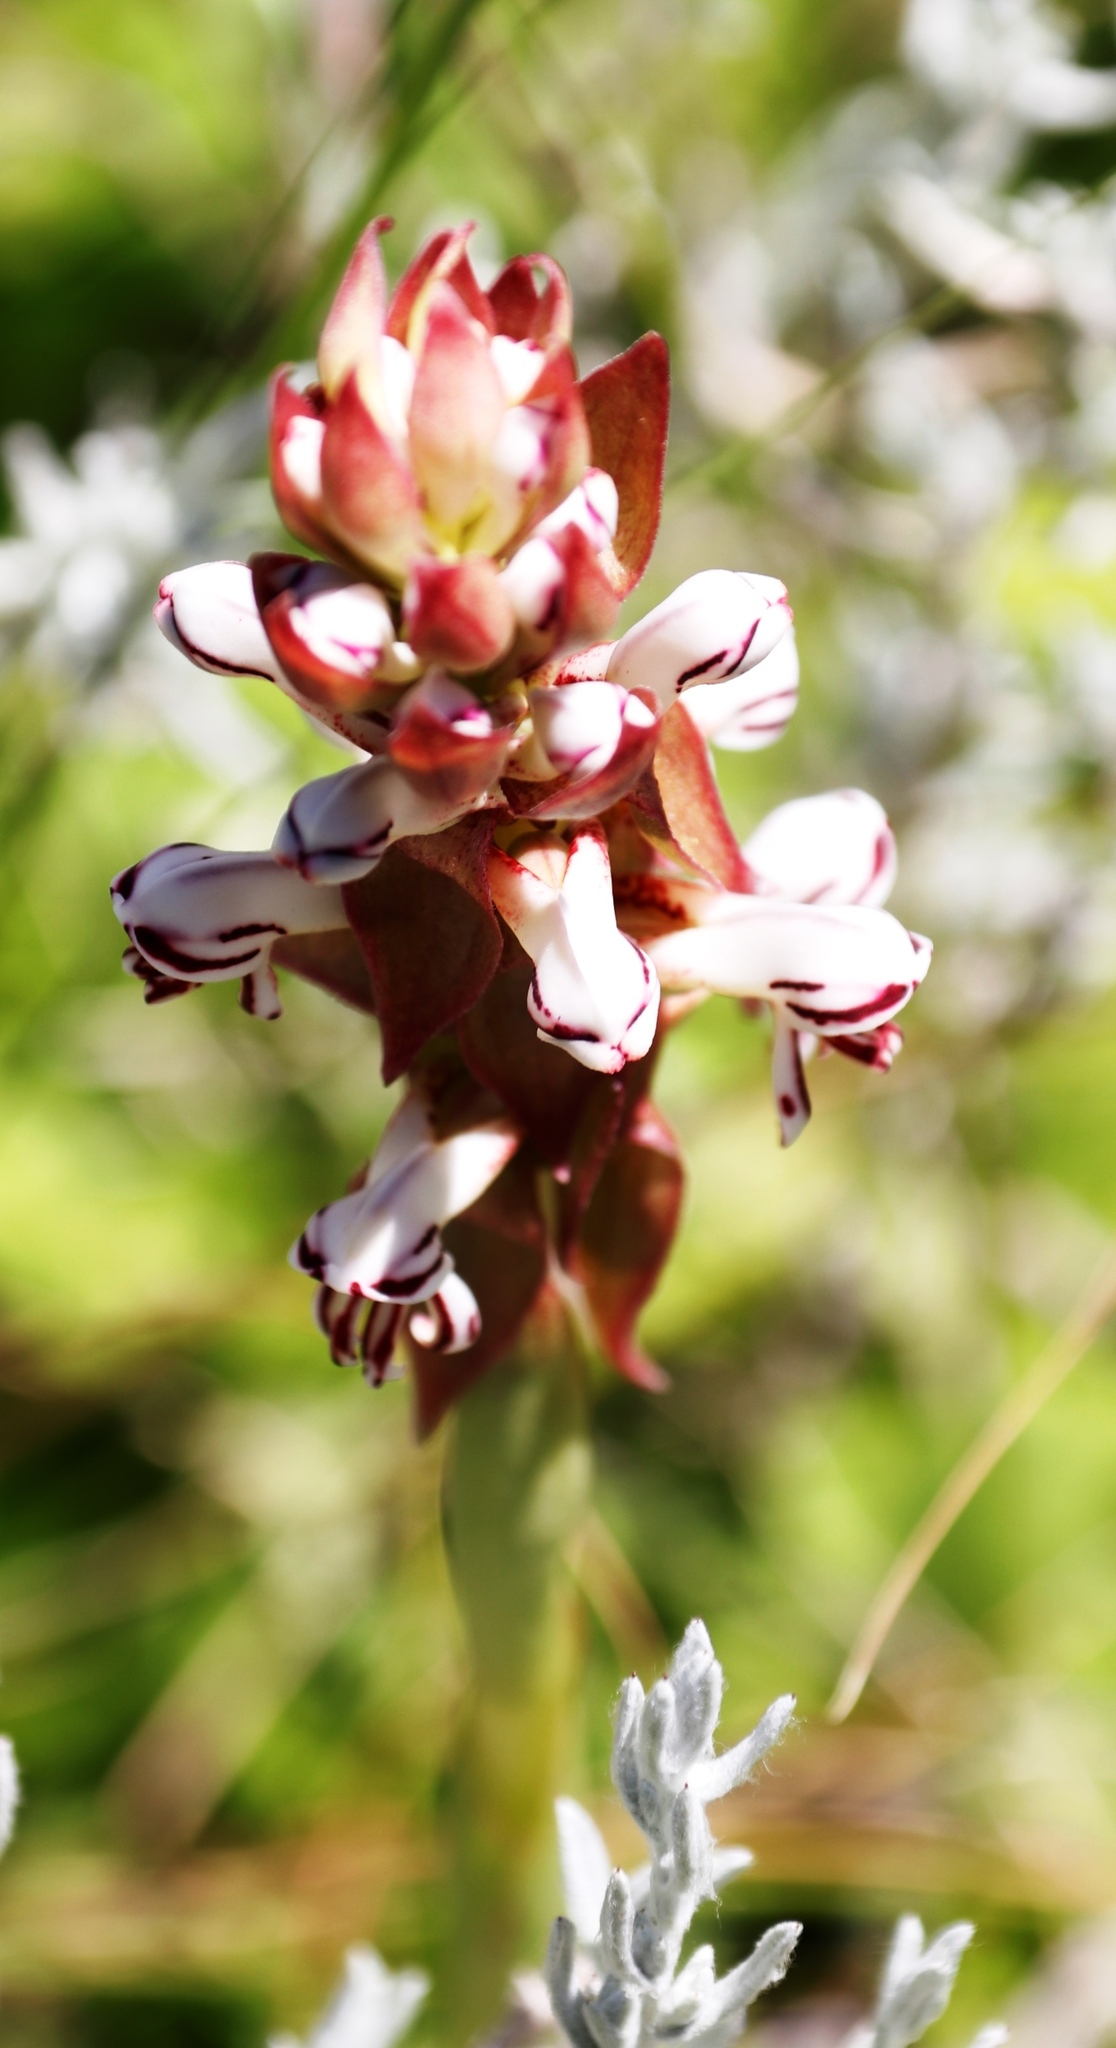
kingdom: Plantae
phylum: Tracheophyta
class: Liliopsida
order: Asparagales
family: Orchidaceae
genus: Satyrium
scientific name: Satyrium cristatum
